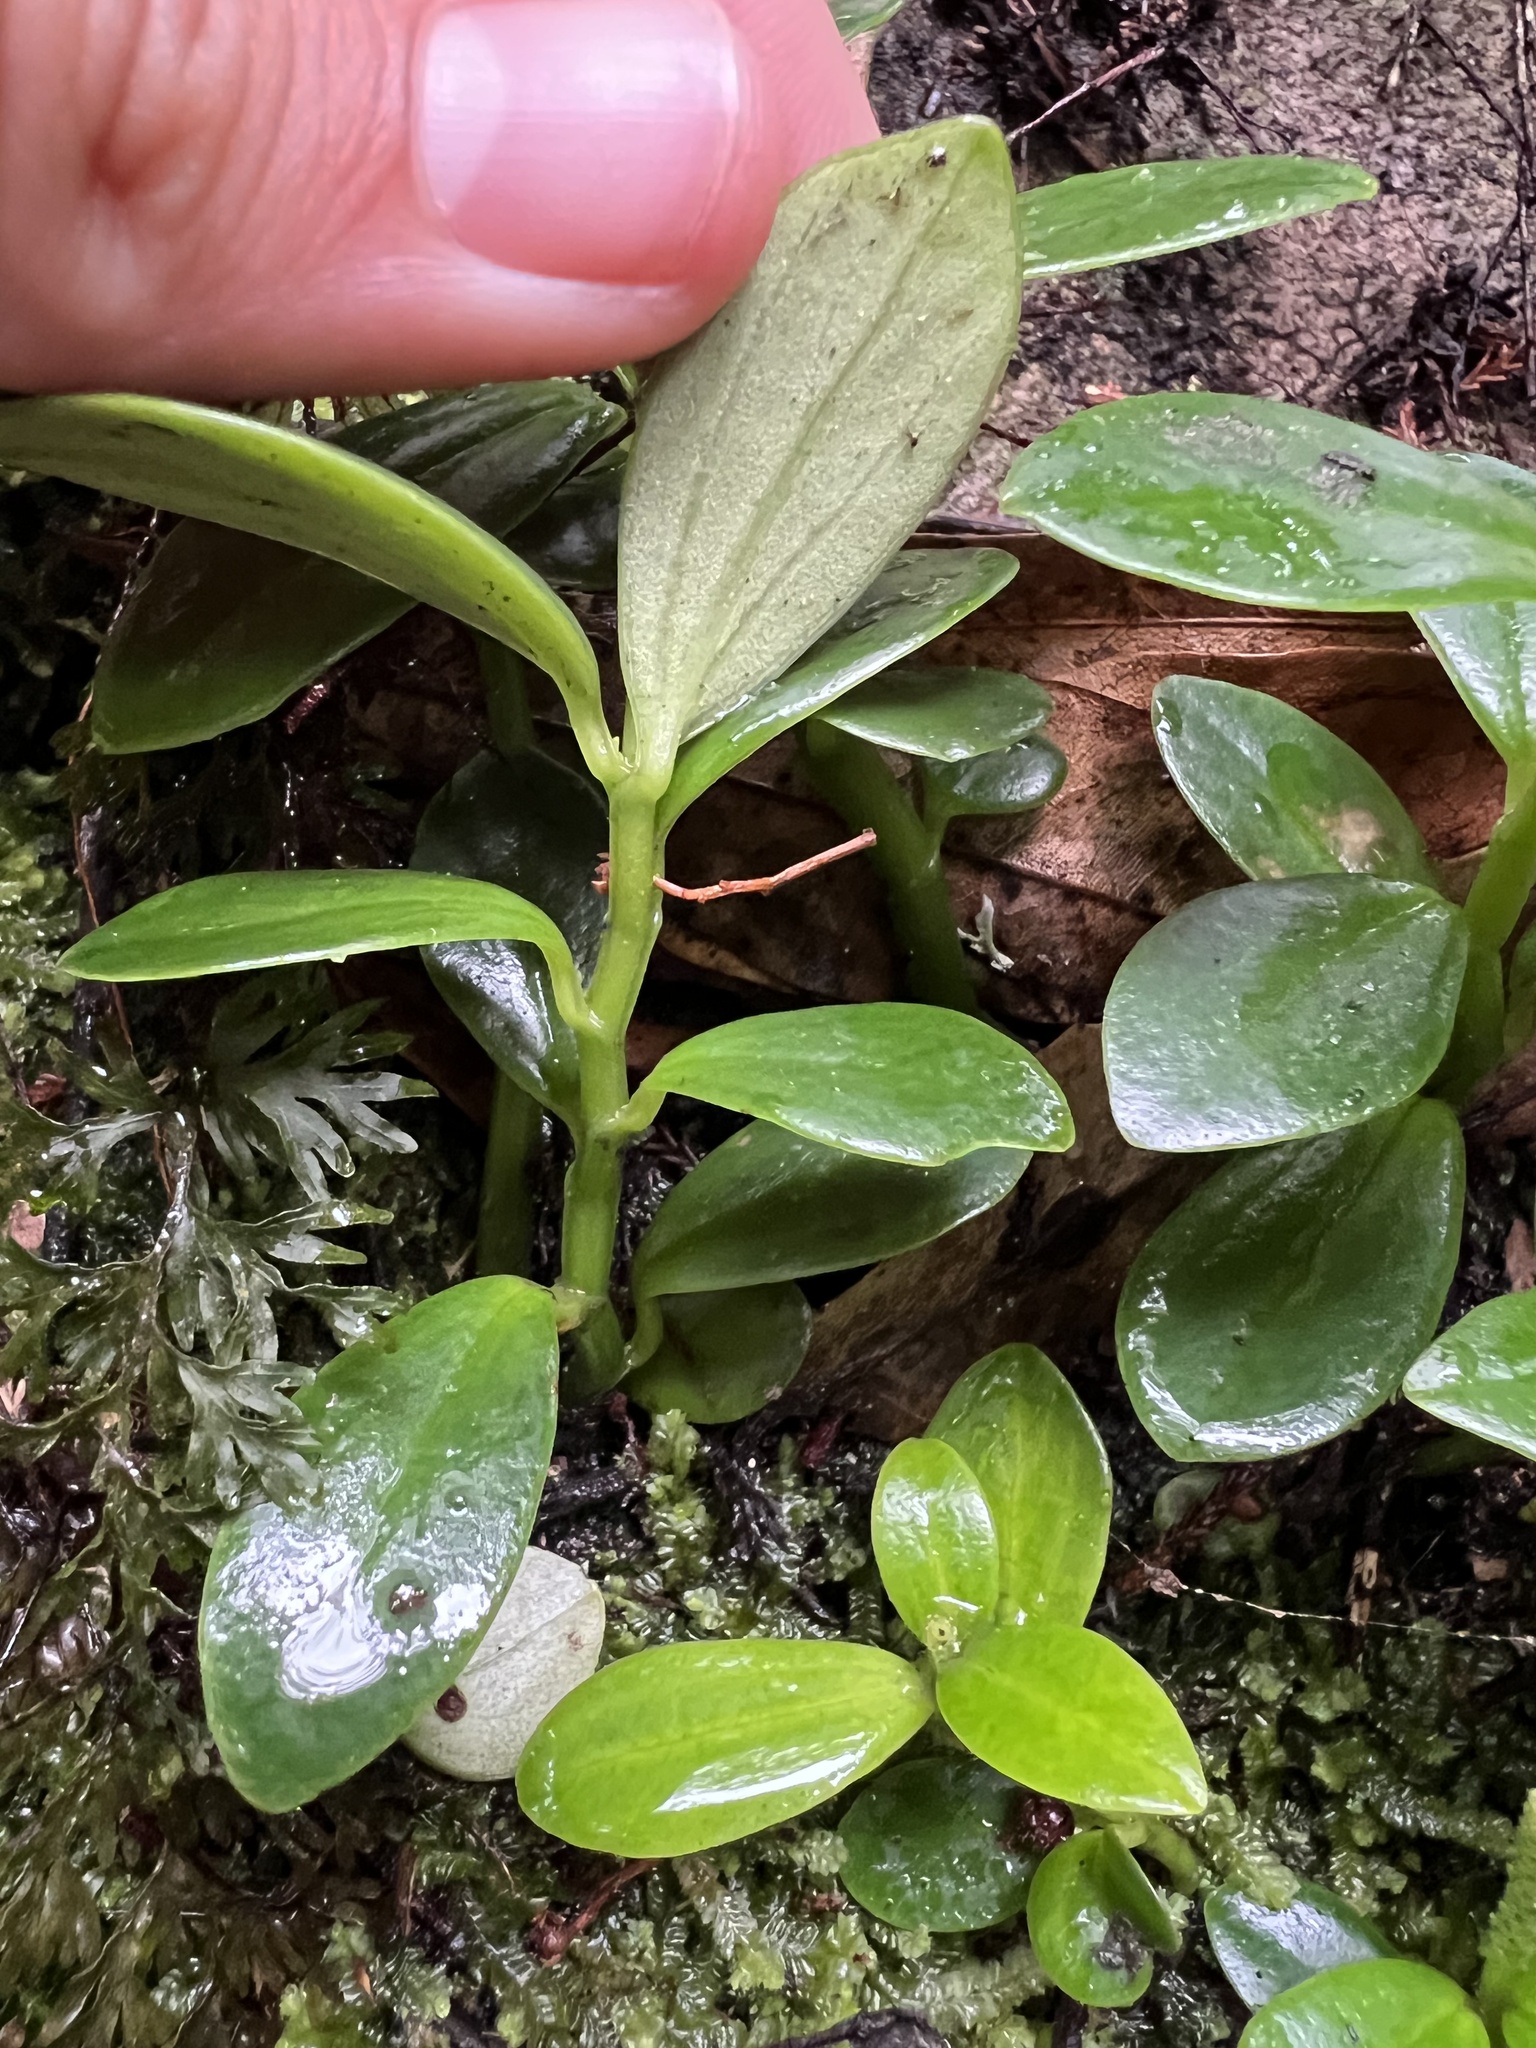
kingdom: Plantae
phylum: Tracheophyta
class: Magnoliopsida
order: Piperales
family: Piperaceae
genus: Peperomia
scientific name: Peperomia urvilleana
